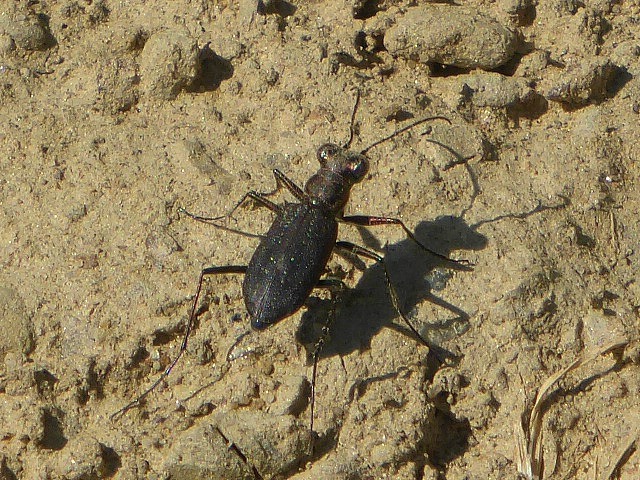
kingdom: Animalia
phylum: Arthropoda
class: Insecta
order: Coleoptera
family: Carabidae
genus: Cicindela
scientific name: Cicindela punctulata
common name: Punctured tiger beetle
